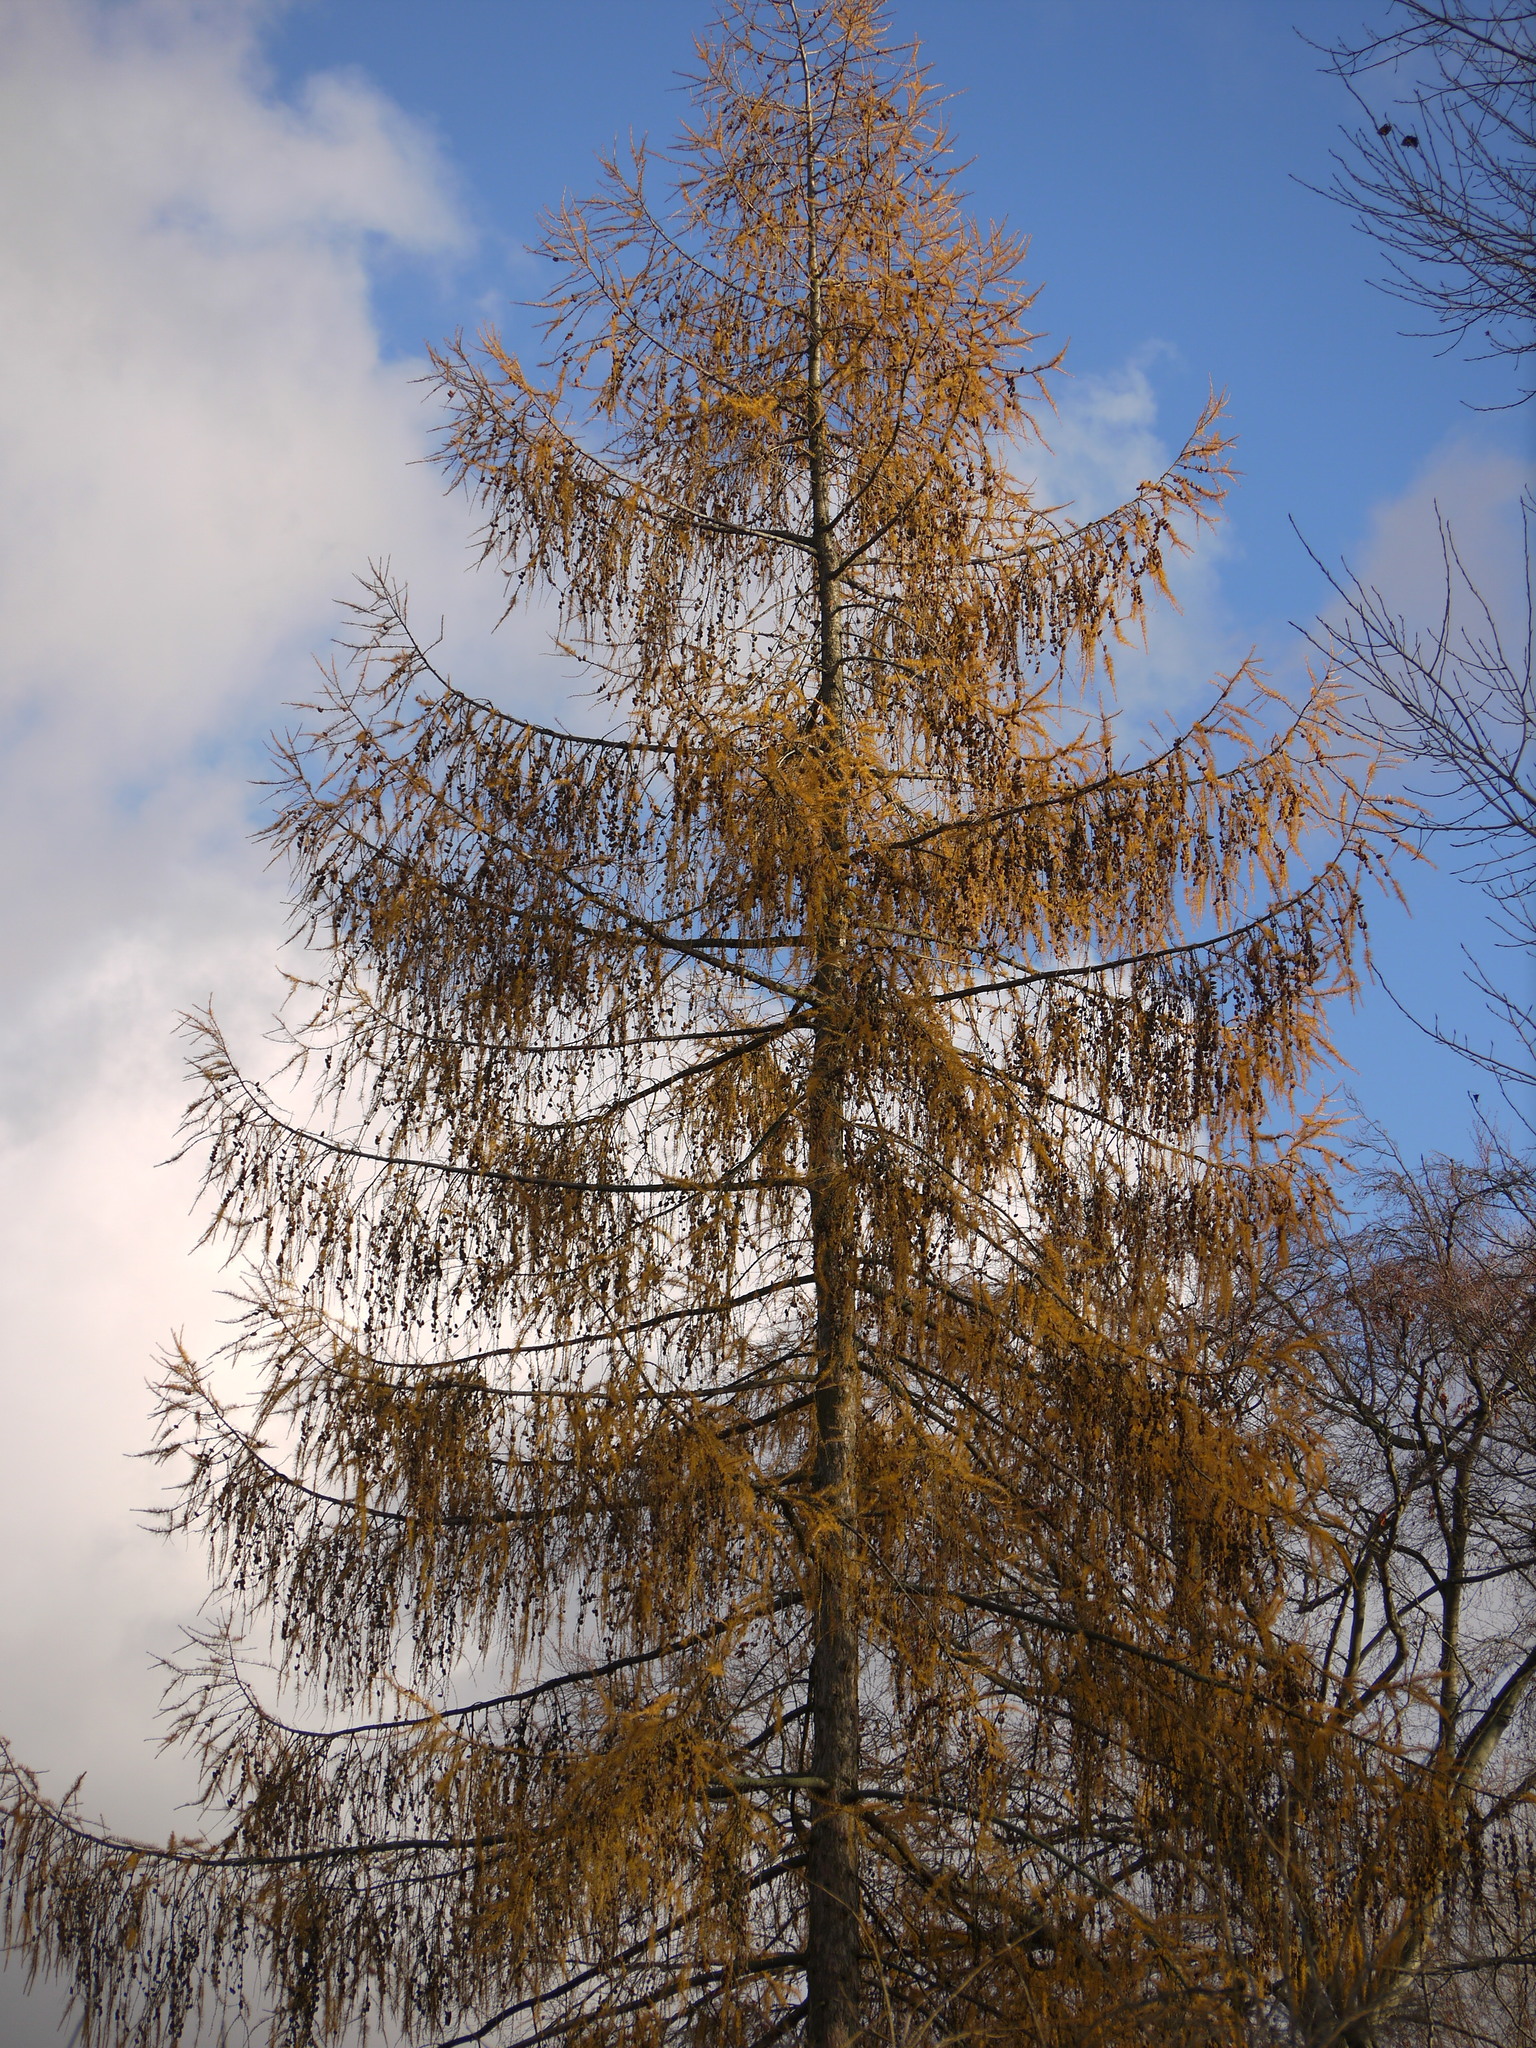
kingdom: Plantae
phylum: Tracheophyta
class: Pinopsida
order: Pinales
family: Pinaceae
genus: Larix
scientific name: Larix decidua
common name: European larch
